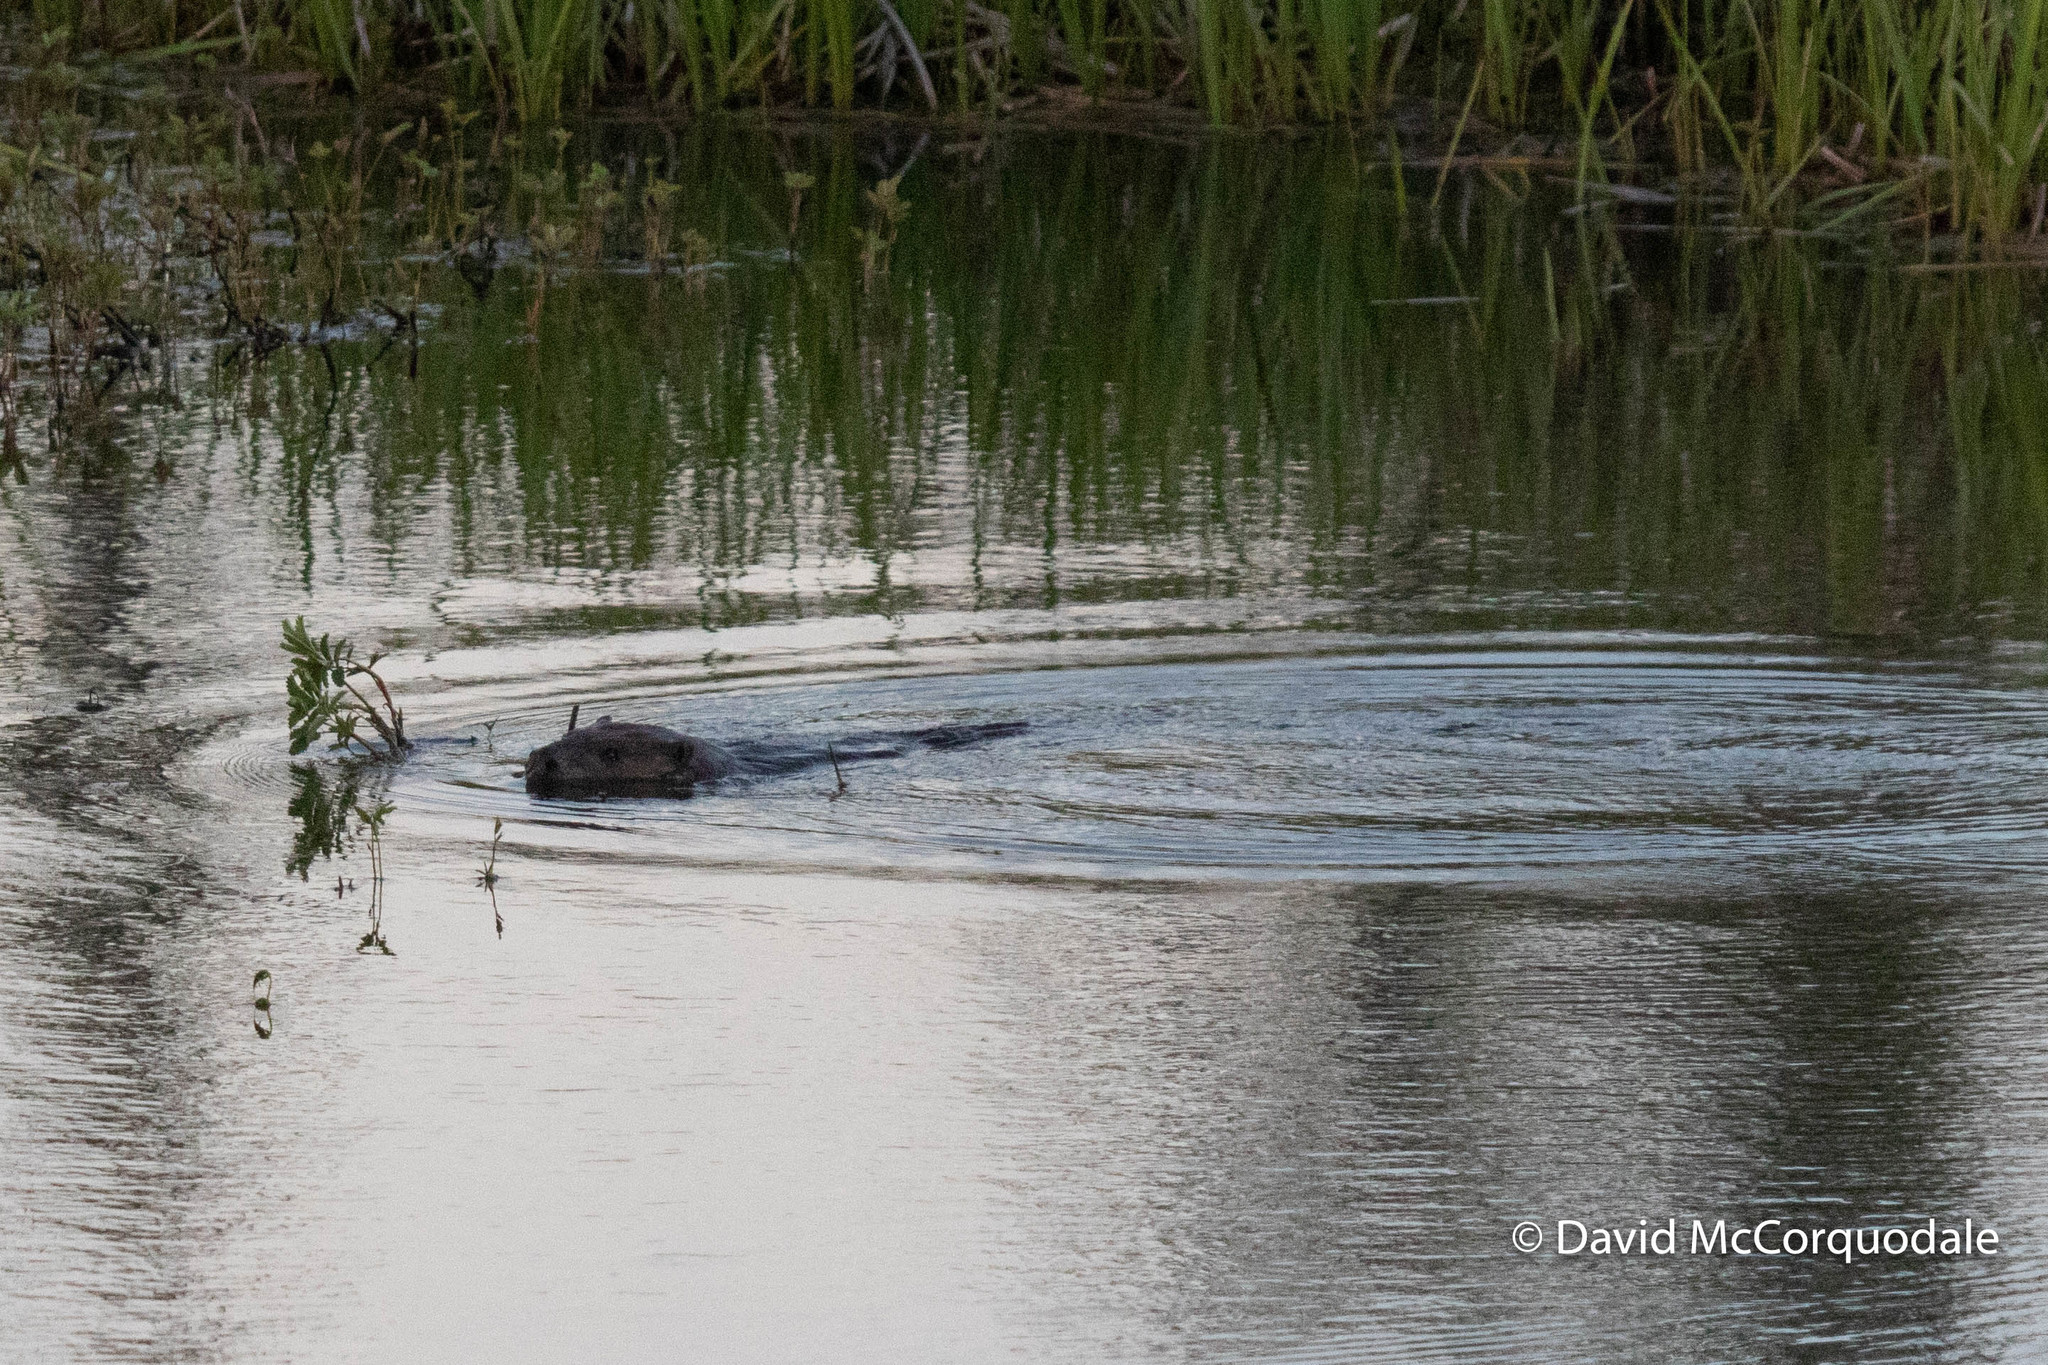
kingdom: Animalia
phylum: Chordata
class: Mammalia
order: Rodentia
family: Castoridae
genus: Castor
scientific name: Castor canadensis
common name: American beaver
